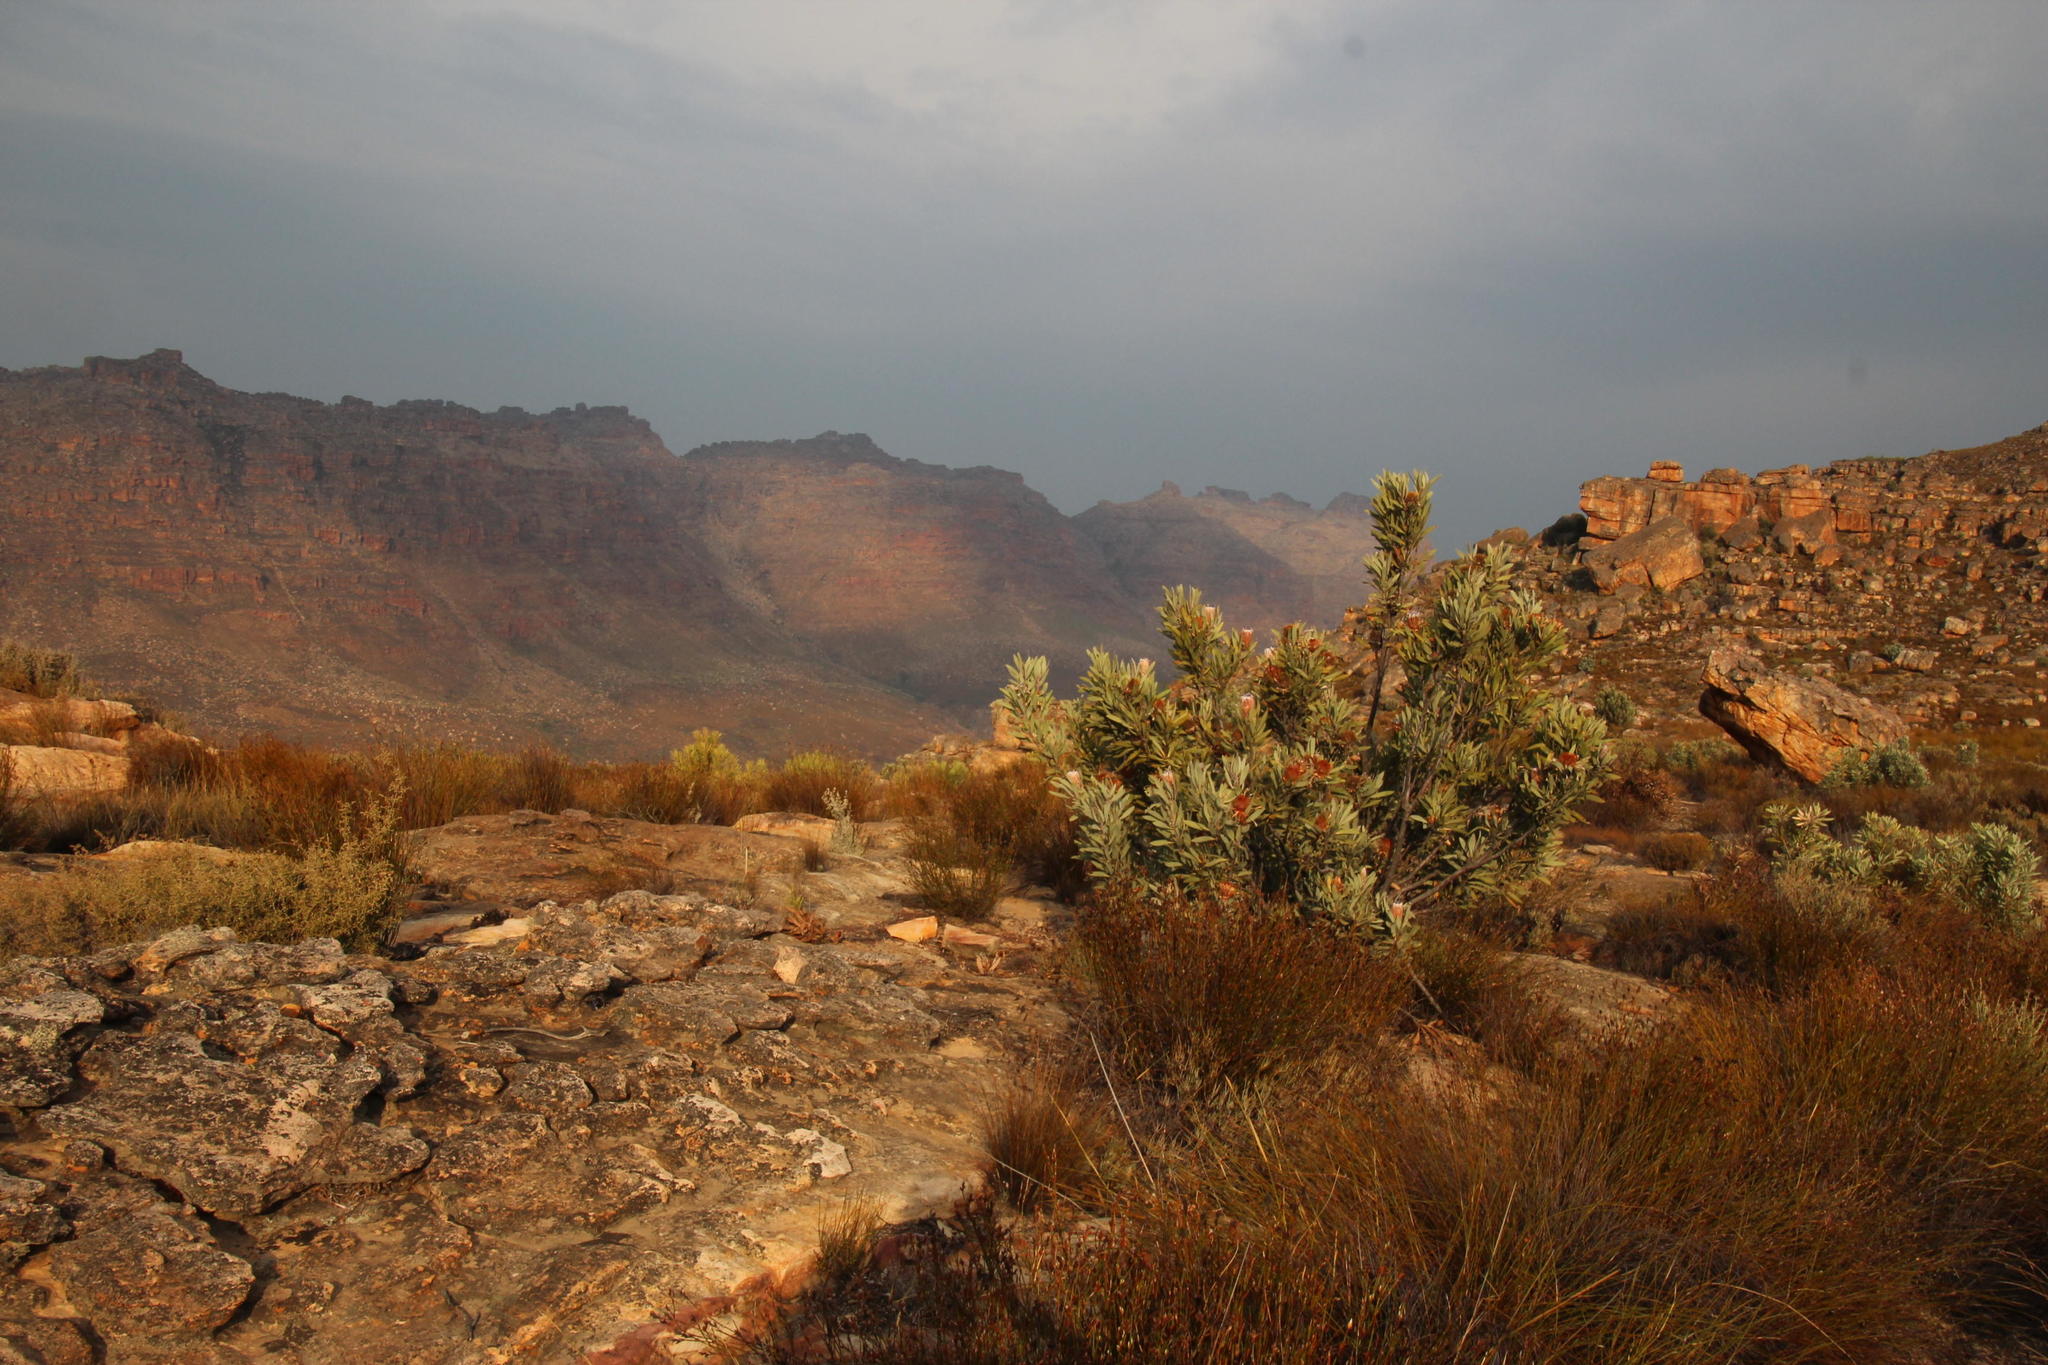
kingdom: Plantae
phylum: Tracheophyta
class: Magnoliopsida
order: Proteales
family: Proteaceae
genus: Protea
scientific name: Protea laurifolia
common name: Grey-leaf sugarbsh
